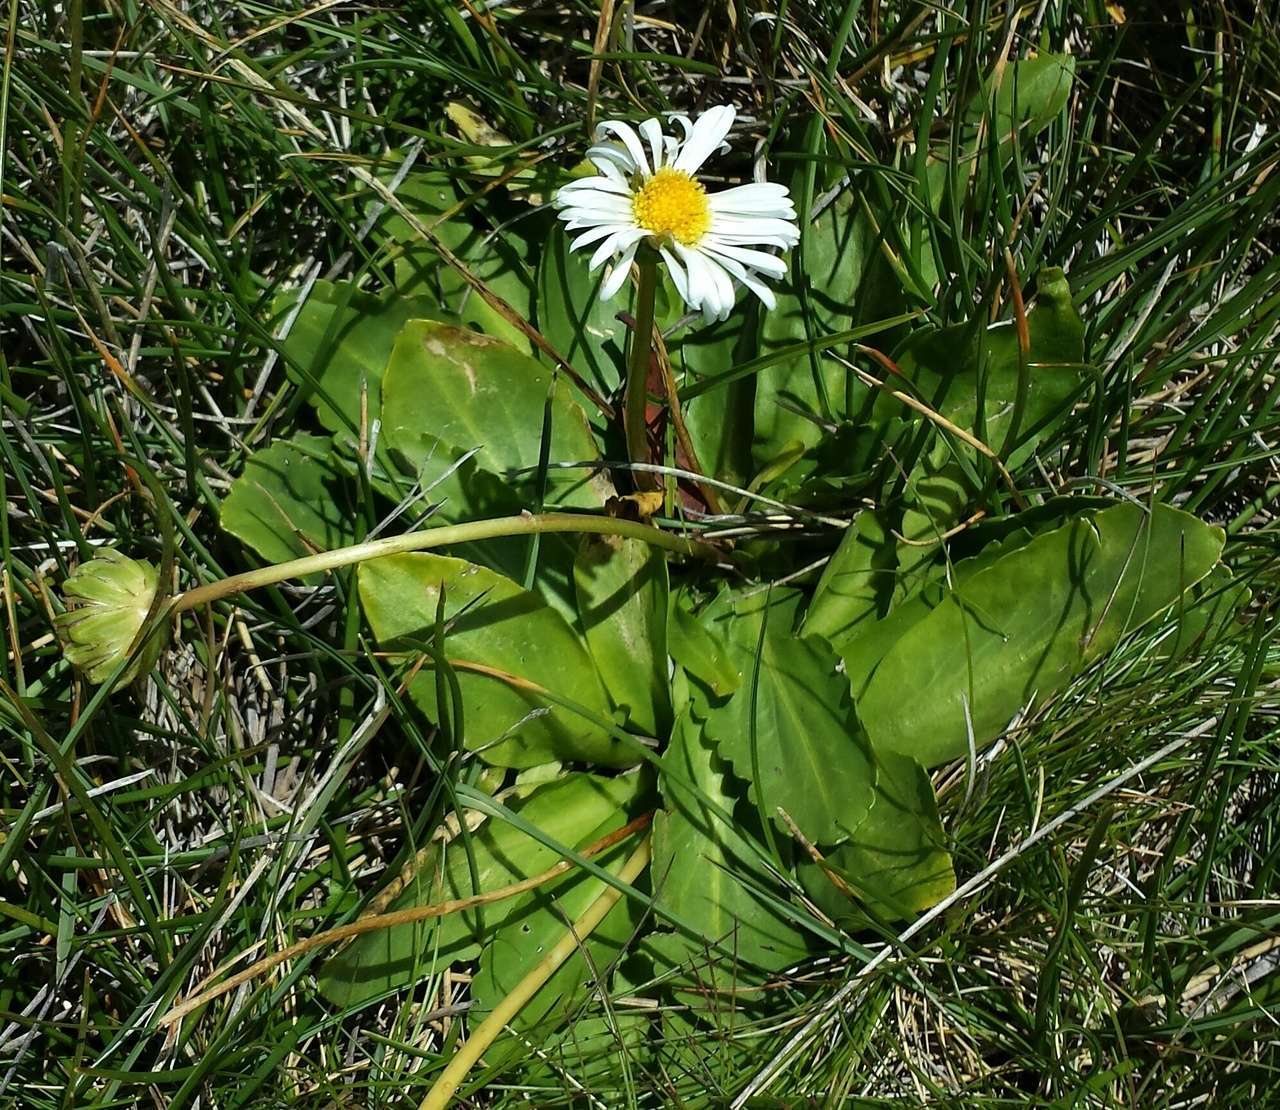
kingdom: Plantae
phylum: Tracheophyta
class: Magnoliopsida
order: Asterales
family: Asteraceae
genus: Brachyscome
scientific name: Brachyscome decipiens
